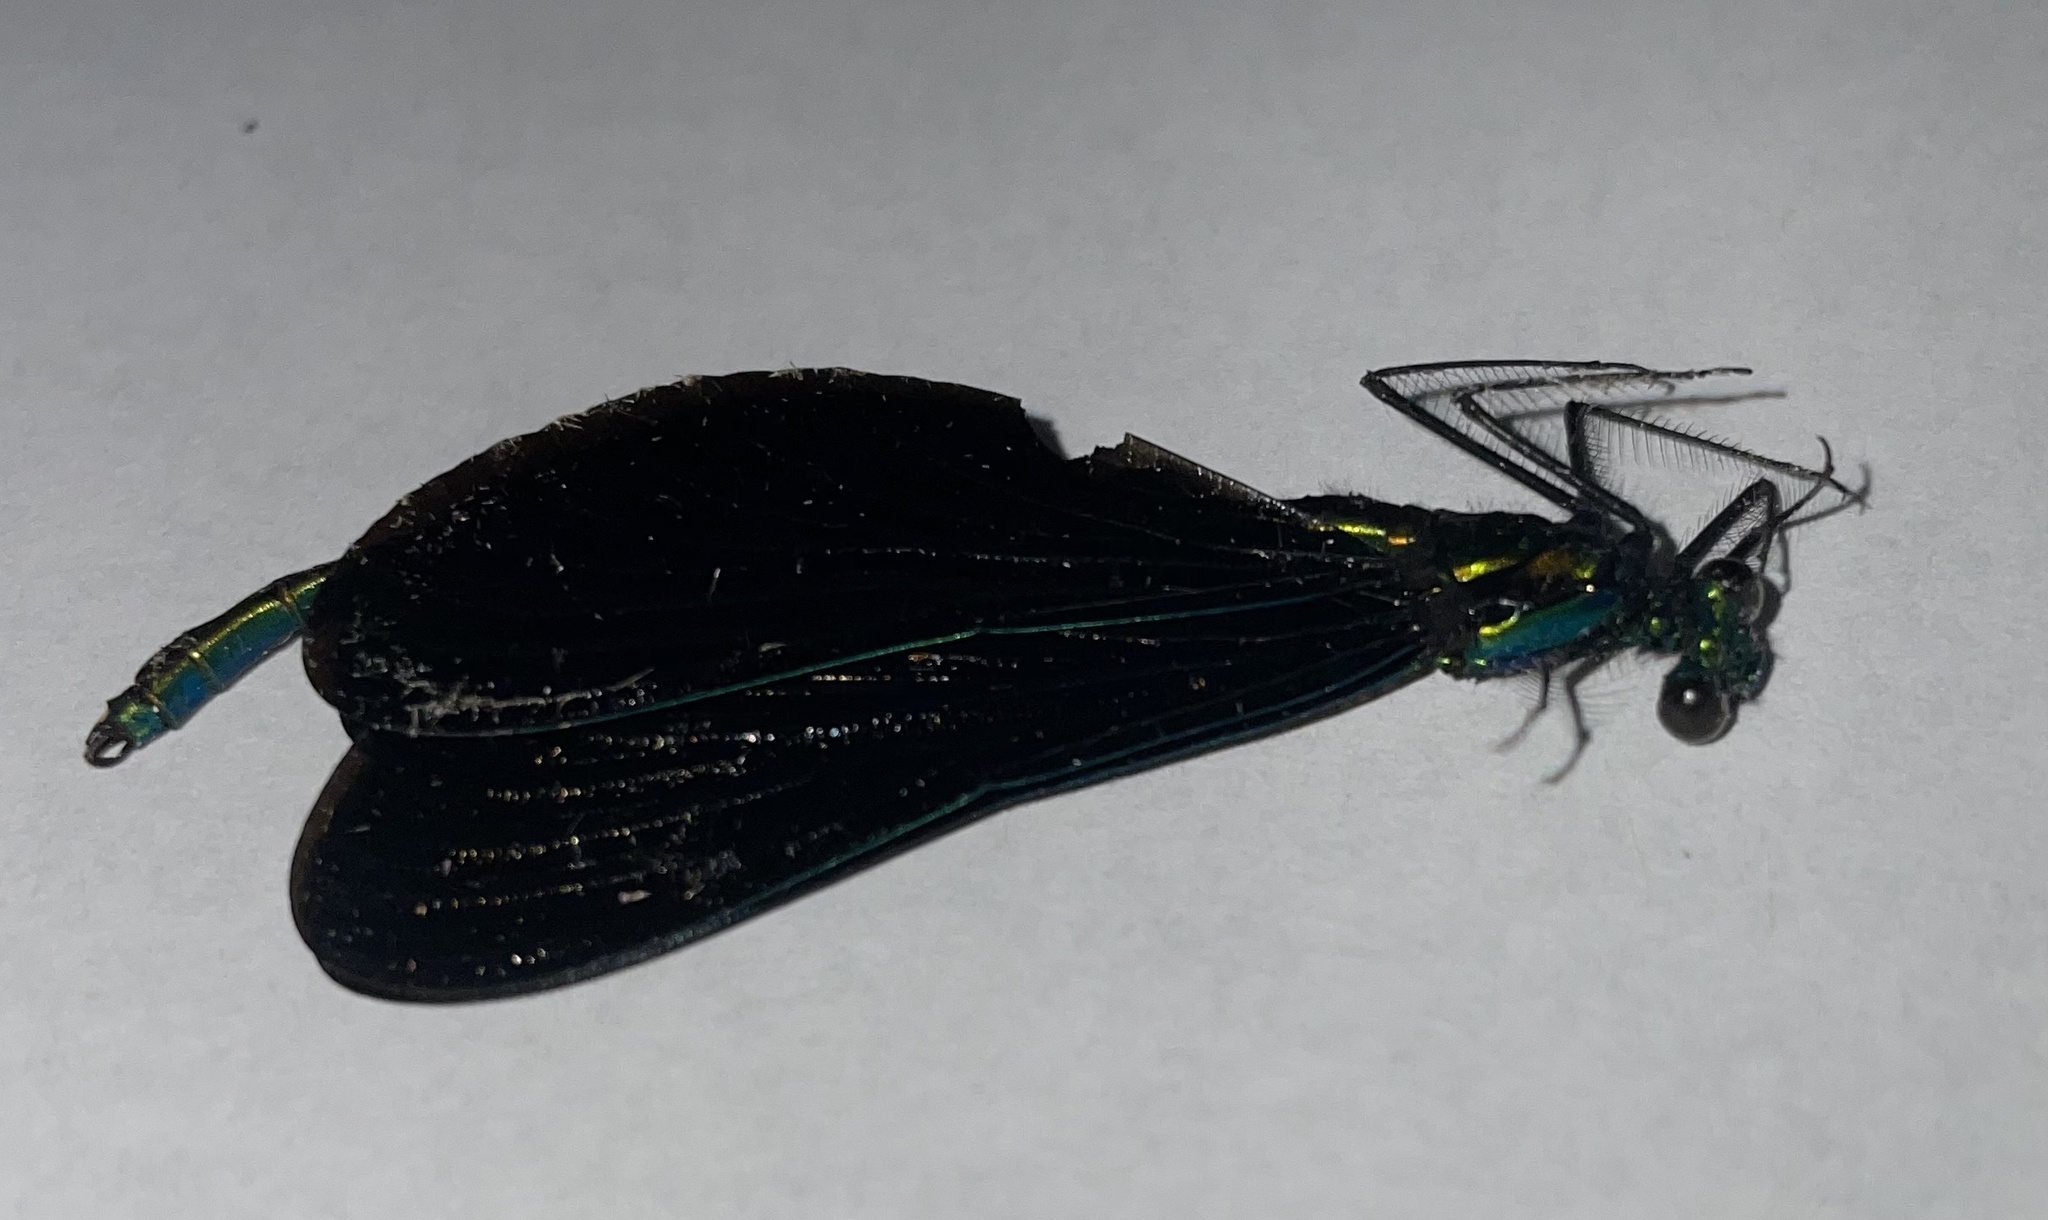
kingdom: Animalia
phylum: Arthropoda
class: Insecta
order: Odonata
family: Calopterygidae
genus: Calopteryx
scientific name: Calopteryx maculata
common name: Ebony jewelwing
